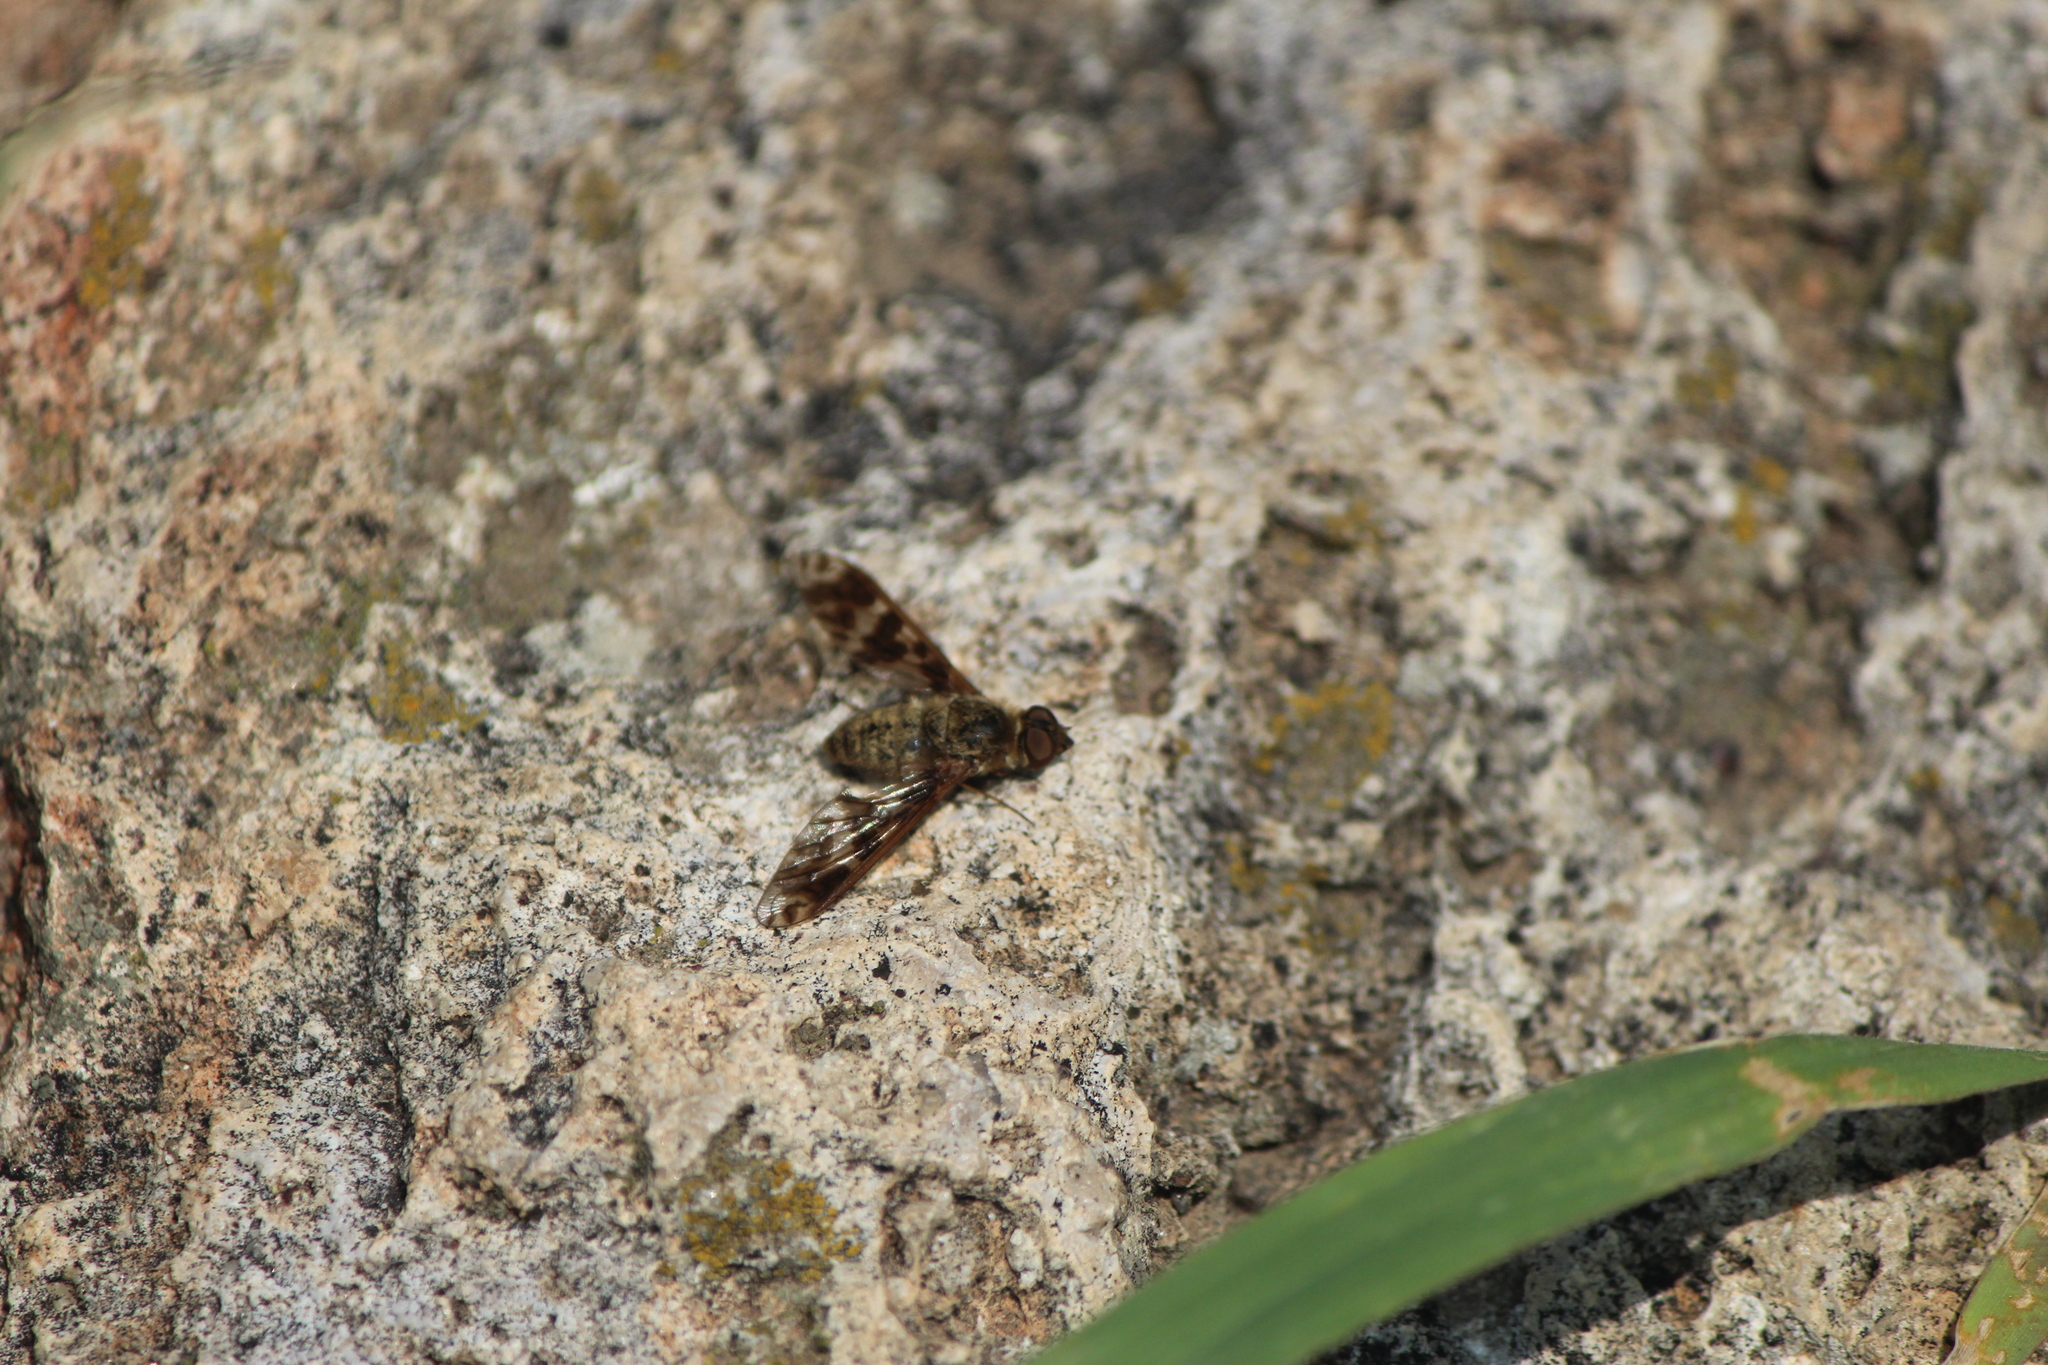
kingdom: Animalia
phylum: Arthropoda
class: Insecta
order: Diptera
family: Bombyliidae
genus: Dipalta
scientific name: Dipalta serpentina
